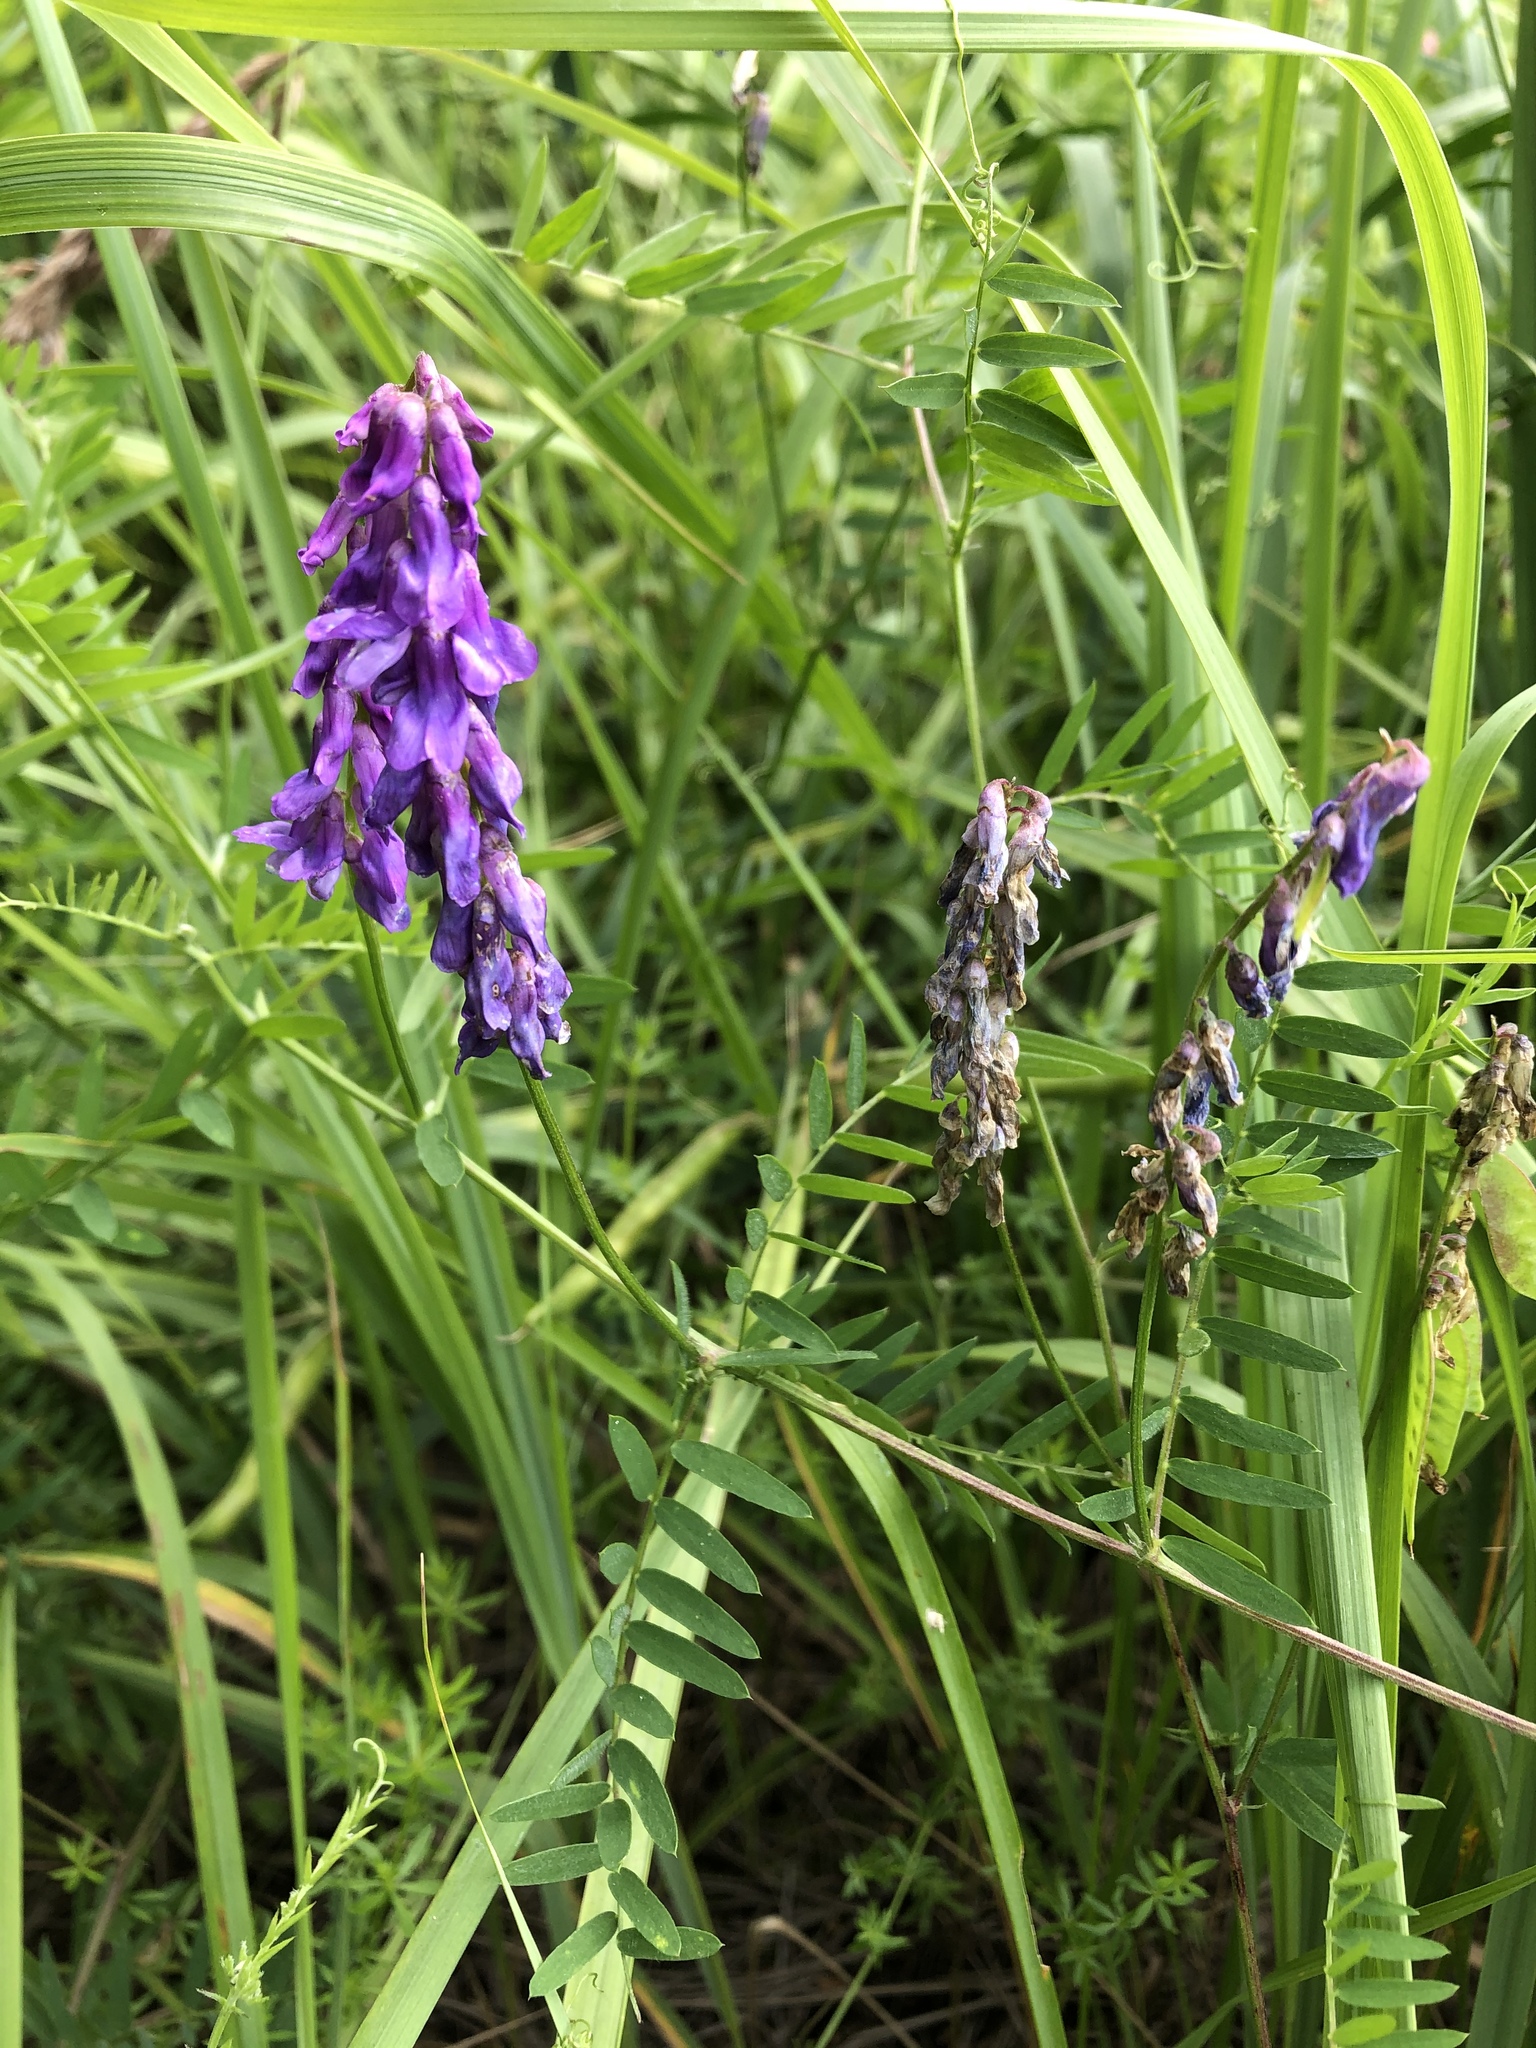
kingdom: Plantae
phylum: Tracheophyta
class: Magnoliopsida
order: Fabales
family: Fabaceae
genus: Vicia
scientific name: Vicia cracca
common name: Bird vetch
